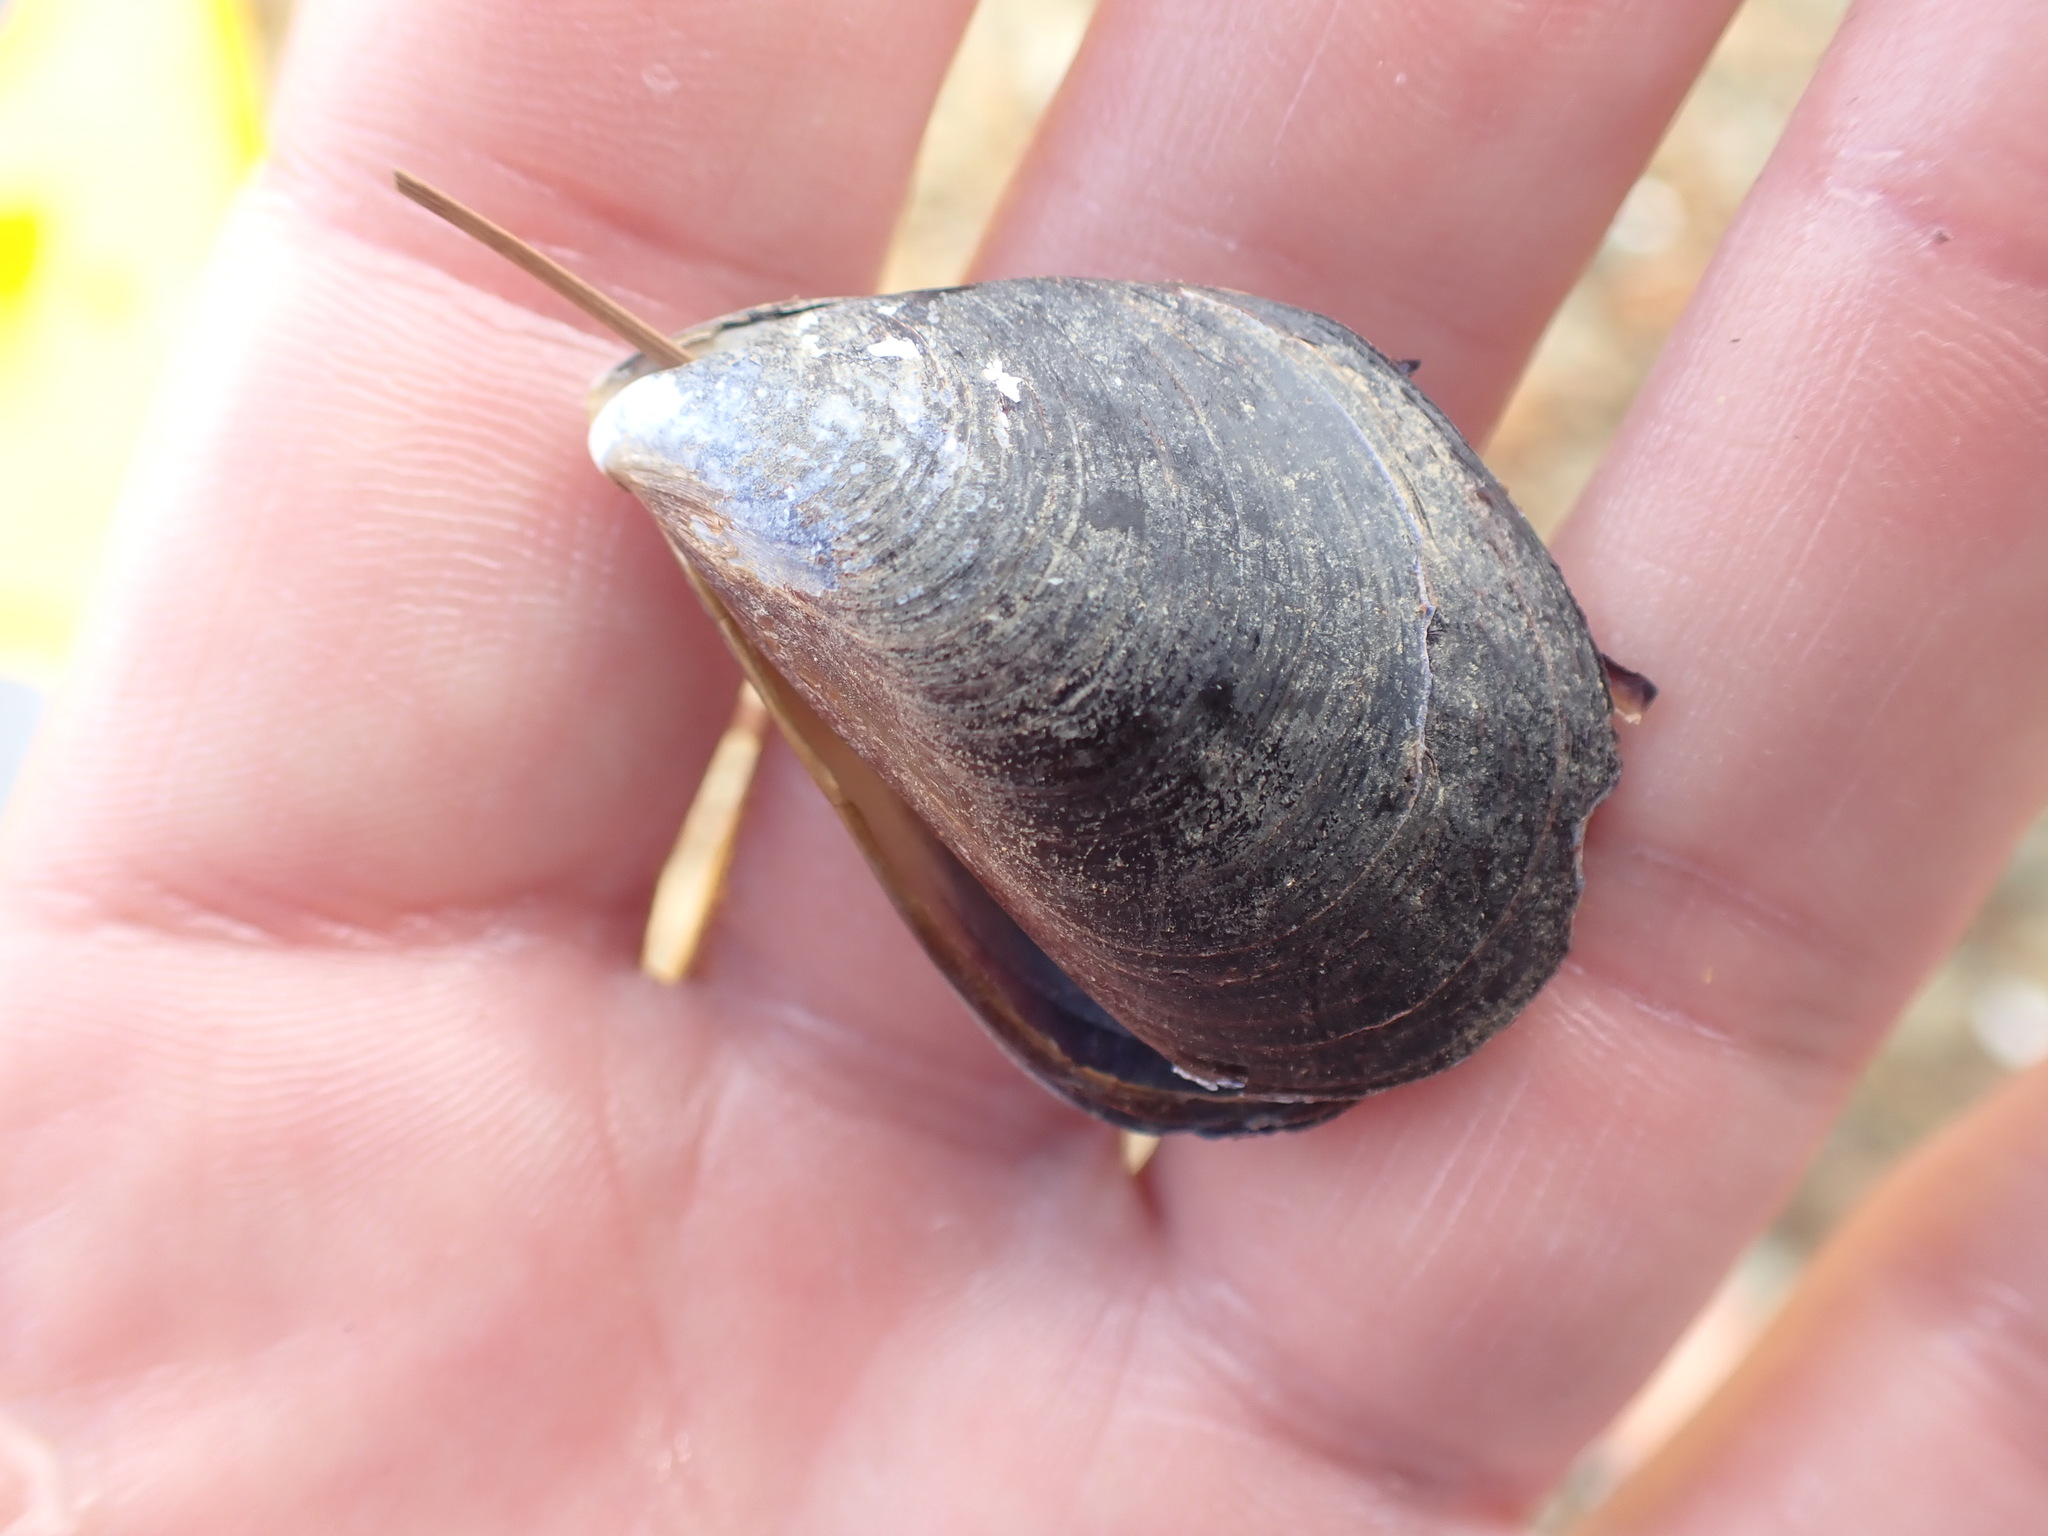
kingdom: Animalia
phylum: Mollusca
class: Bivalvia
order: Mytilida
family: Mytilidae
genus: Mytilus
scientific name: Mytilus planulatus
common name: Australian mussel
